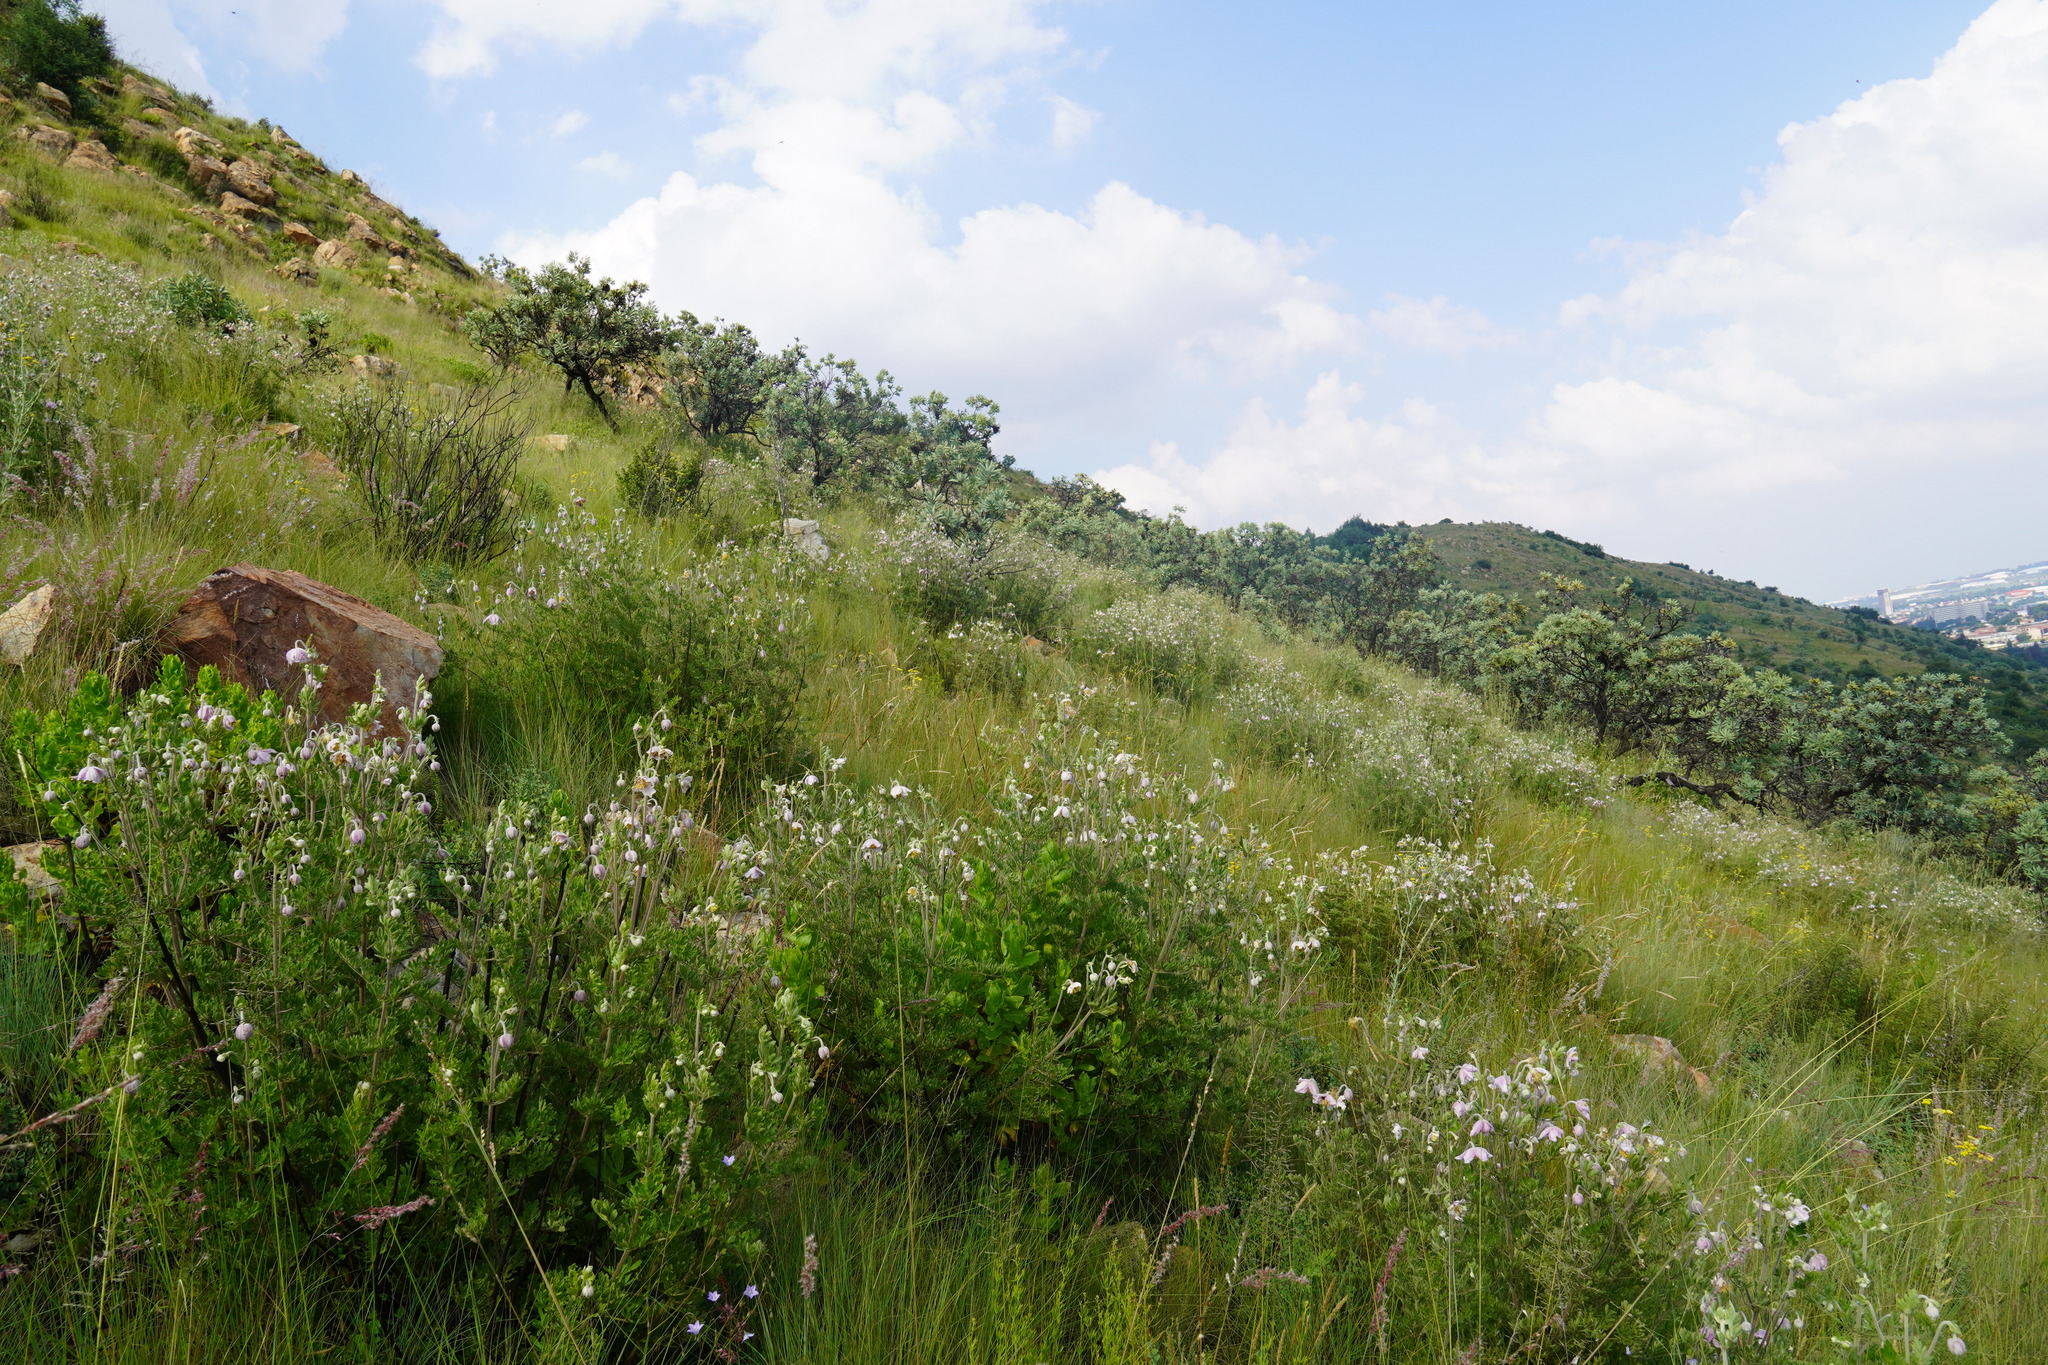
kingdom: Plantae
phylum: Tracheophyta
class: Magnoliopsida
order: Ranunculales
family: Ranunculaceae
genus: Clematis
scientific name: Clematis villosa
